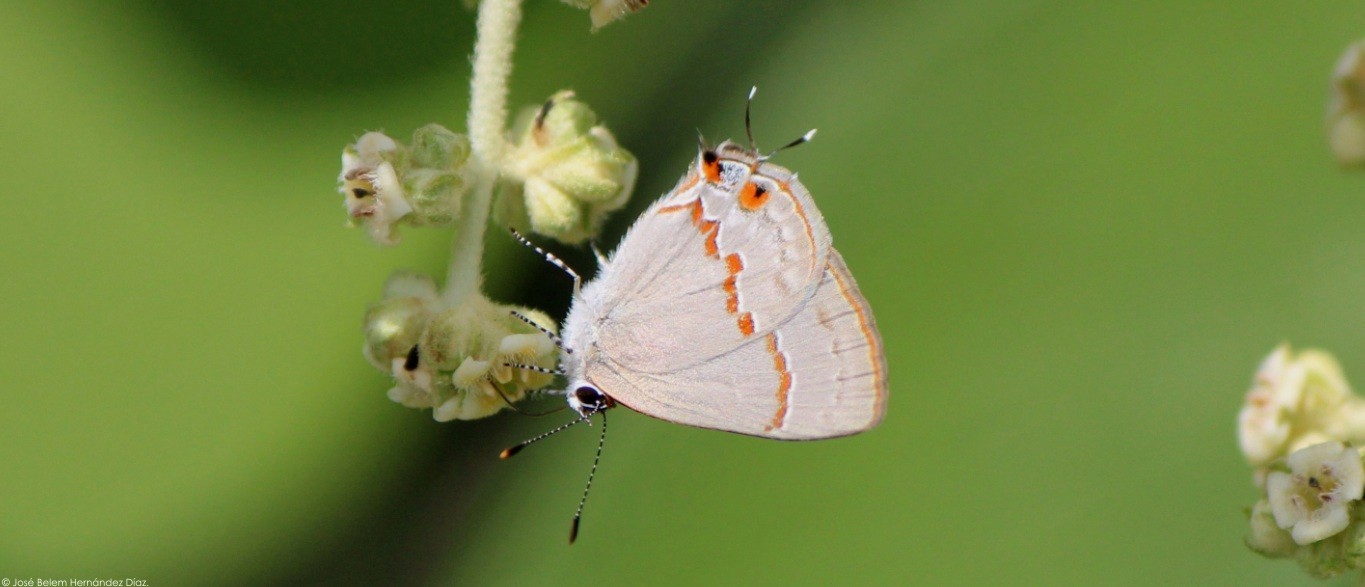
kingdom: Animalia
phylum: Arthropoda
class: Insecta
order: Lepidoptera
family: Lycaenidae
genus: Thecla
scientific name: Thecla azia
